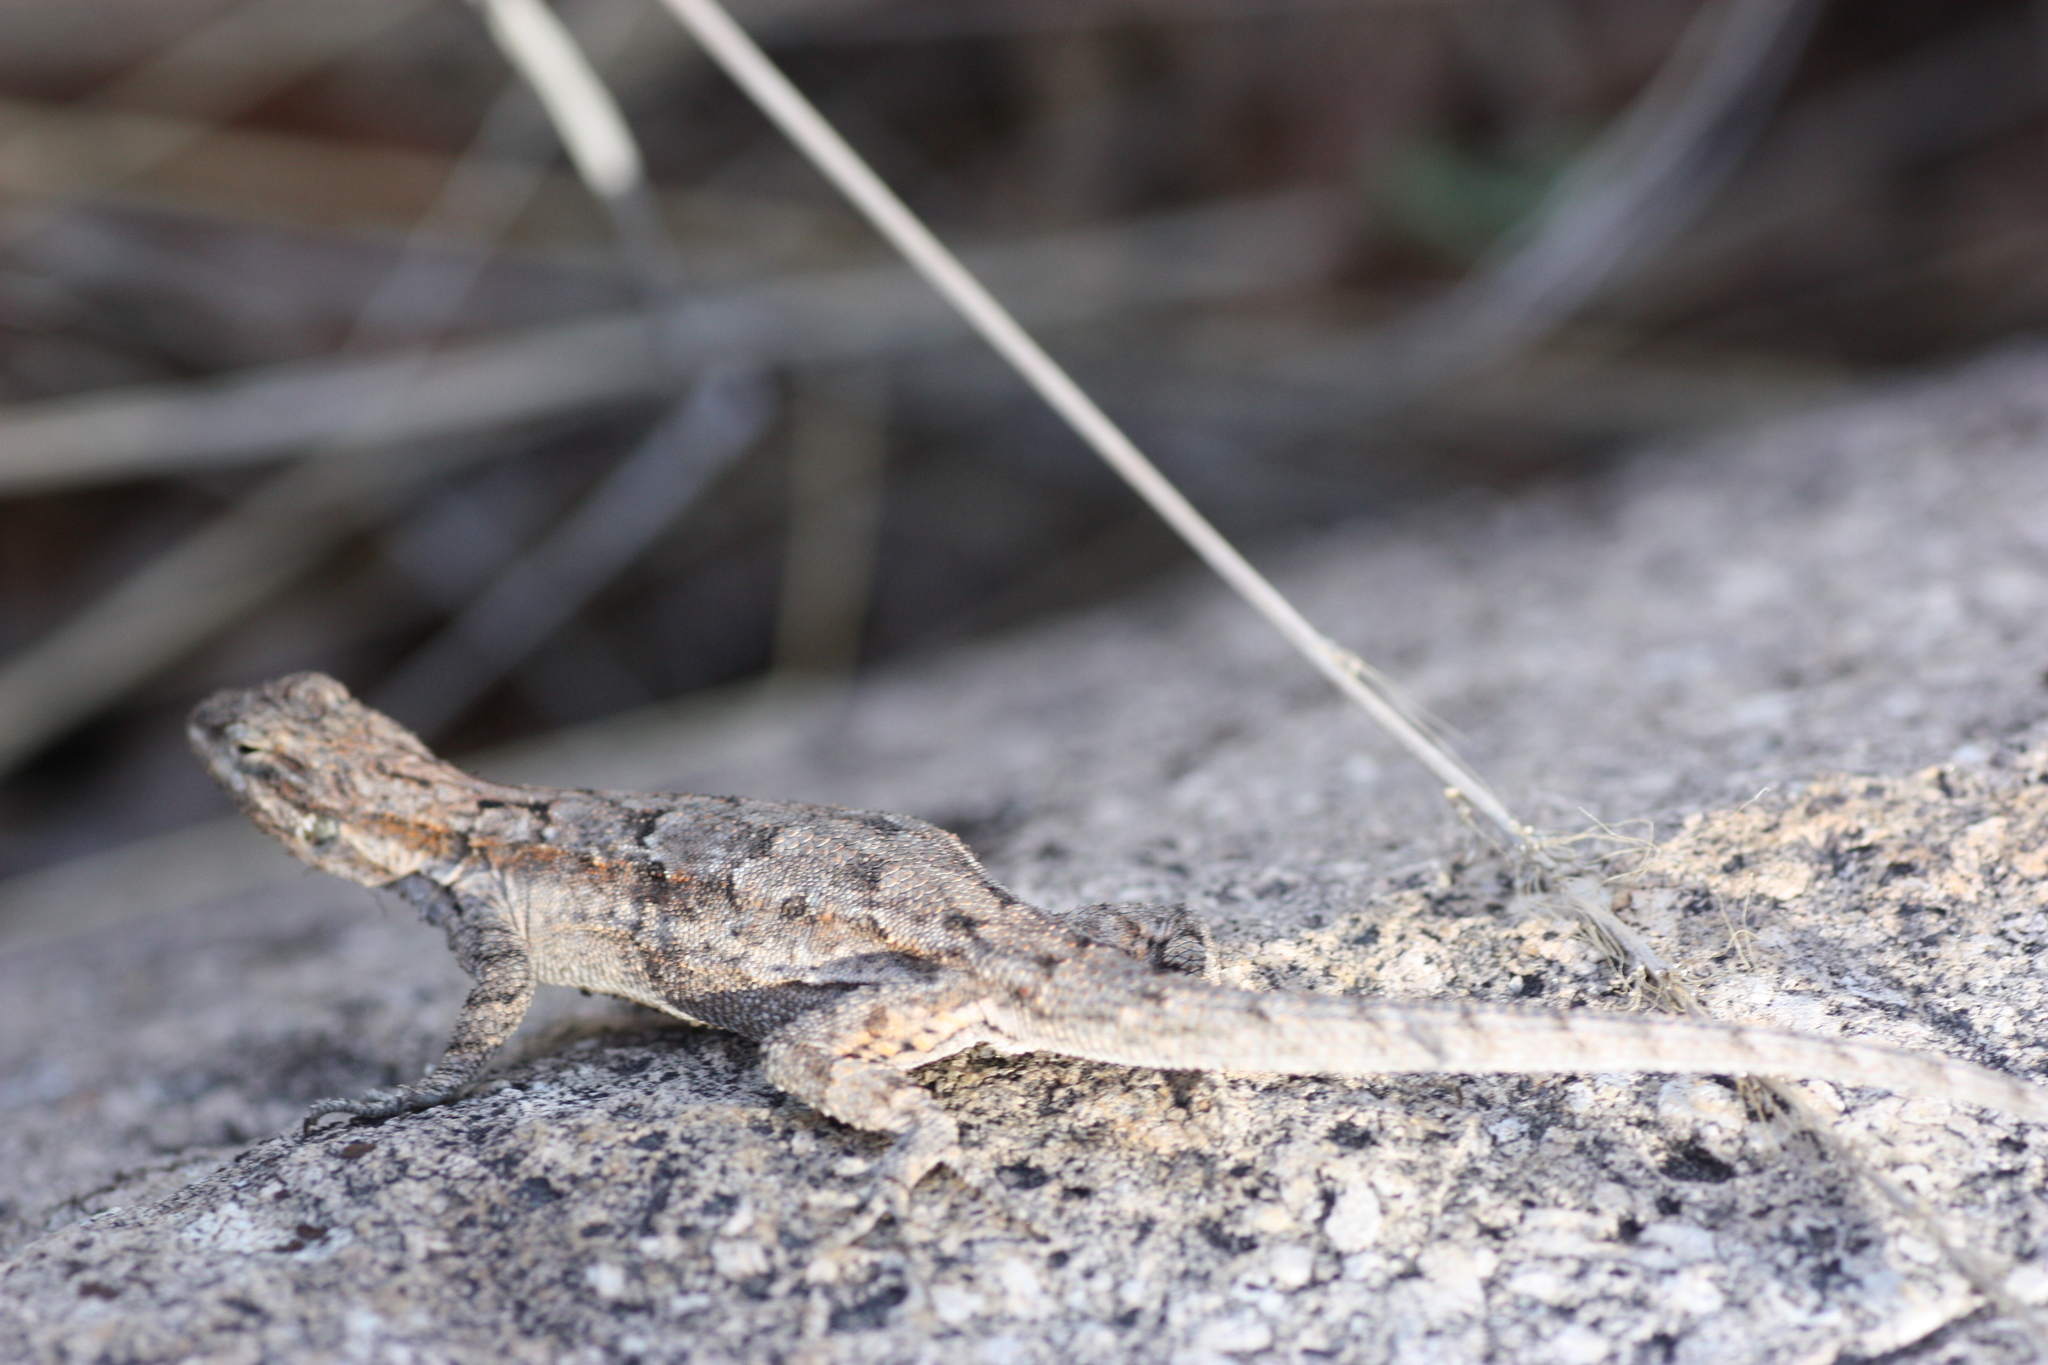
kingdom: Animalia
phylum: Chordata
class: Squamata
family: Phrynosomatidae
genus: Urosaurus
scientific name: Urosaurus ornatus
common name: Ornate tree lizard
